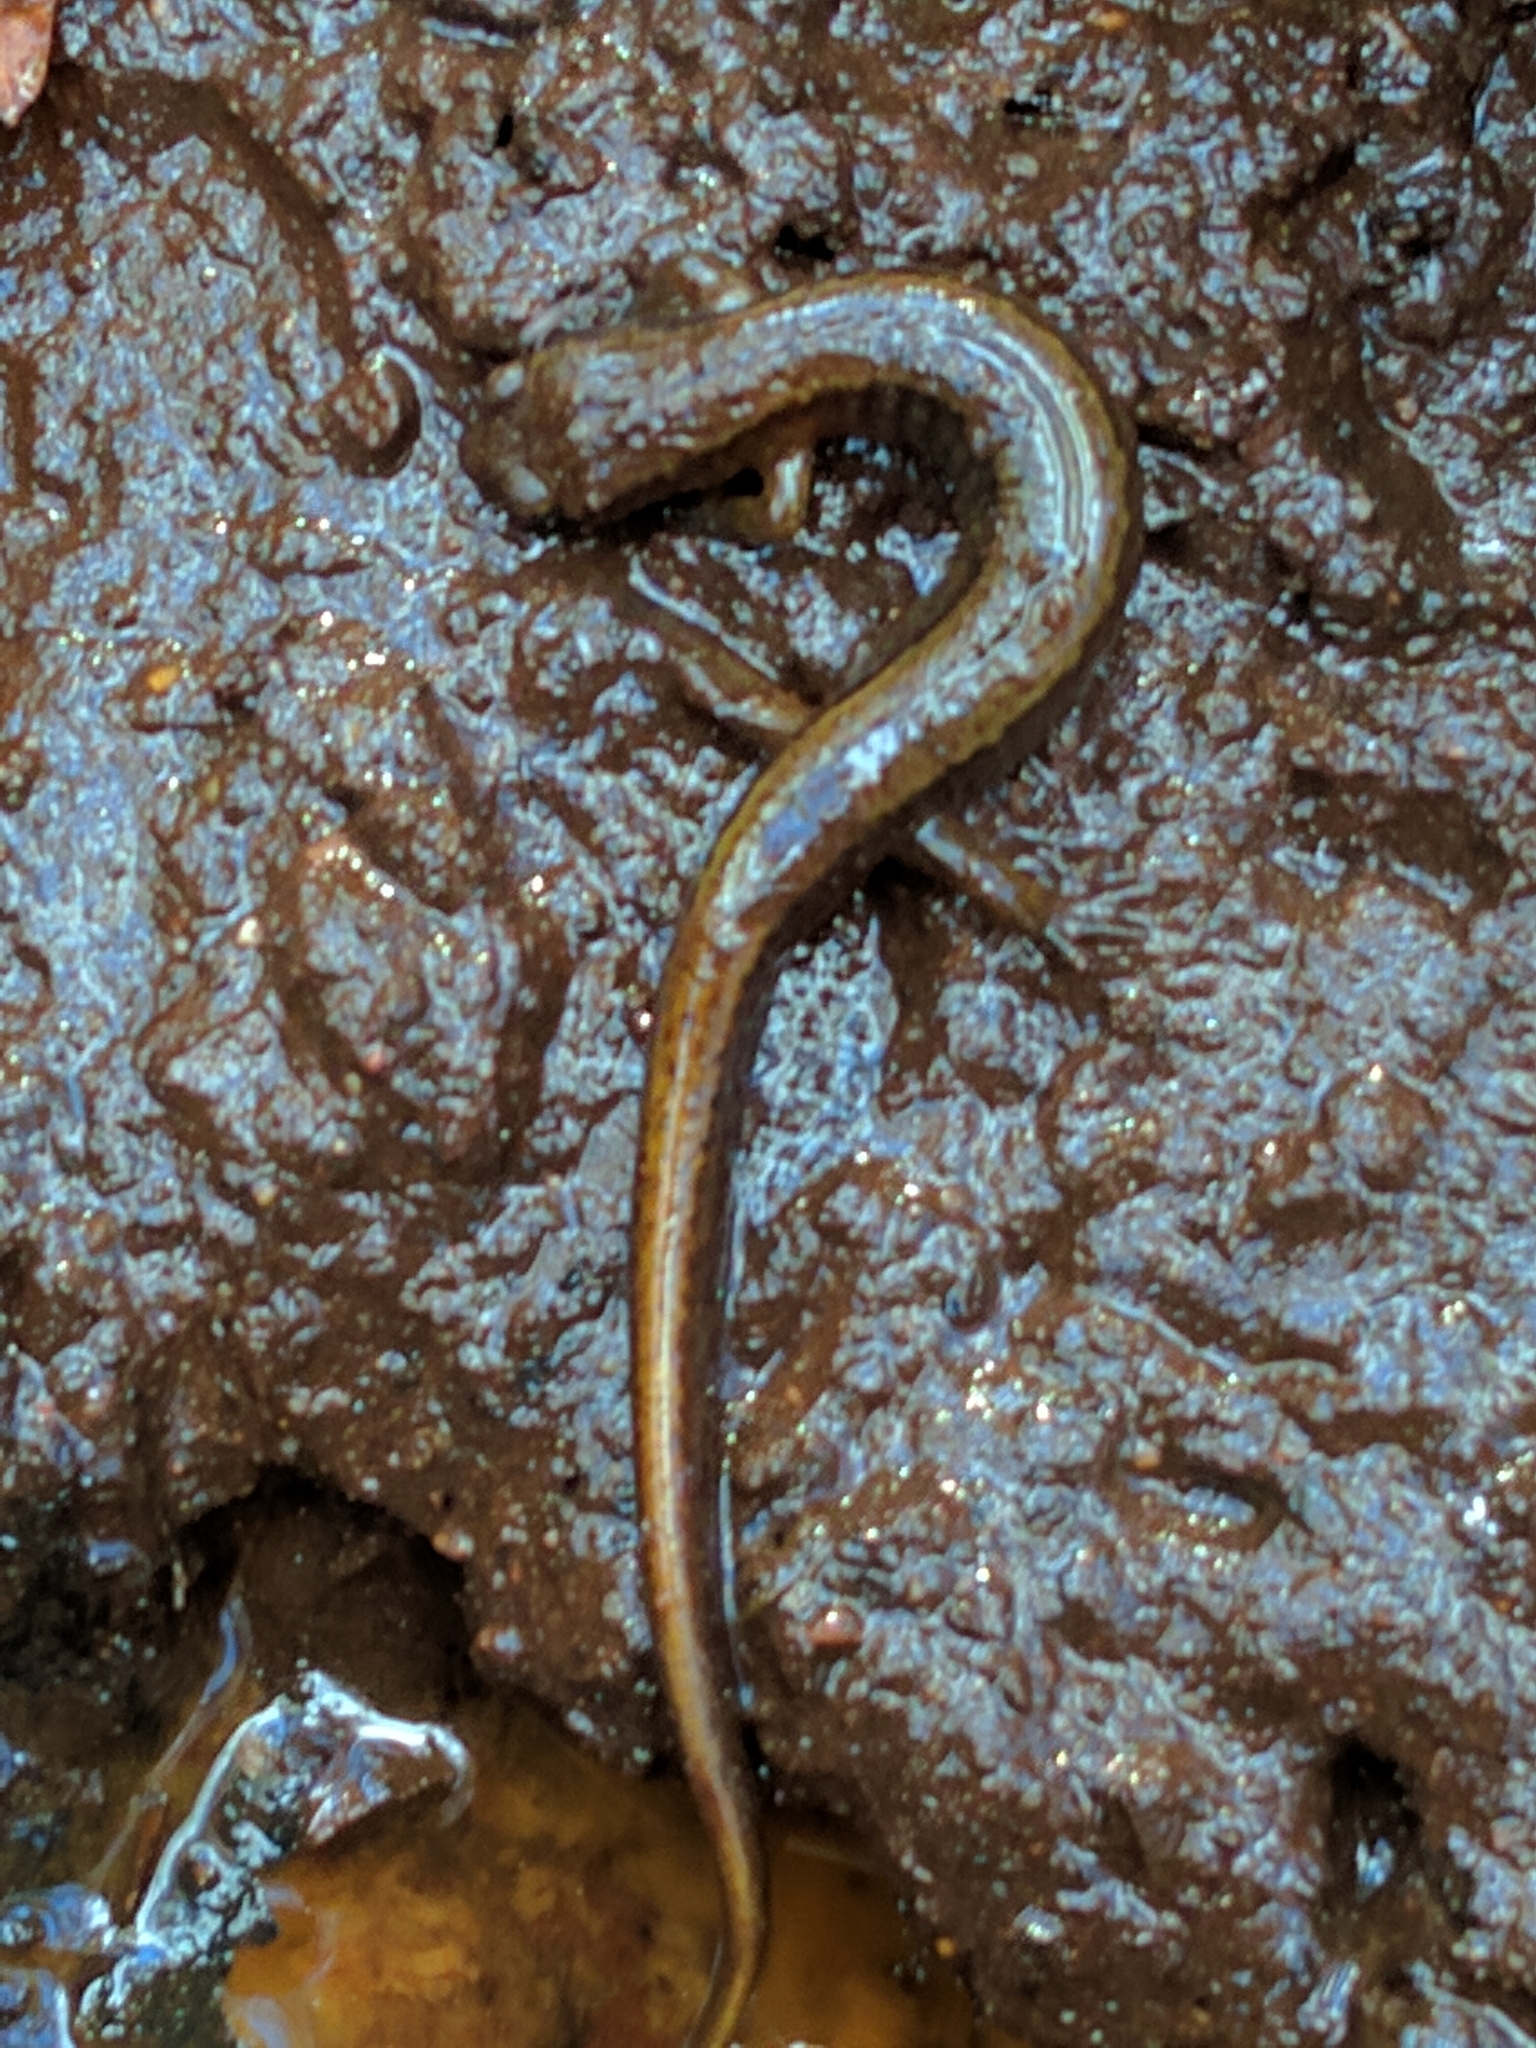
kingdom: Animalia
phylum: Chordata
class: Amphibia
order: Caudata
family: Plethodontidae
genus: Eurycea
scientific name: Eurycea bislineata
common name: Northern two-lined salamander
